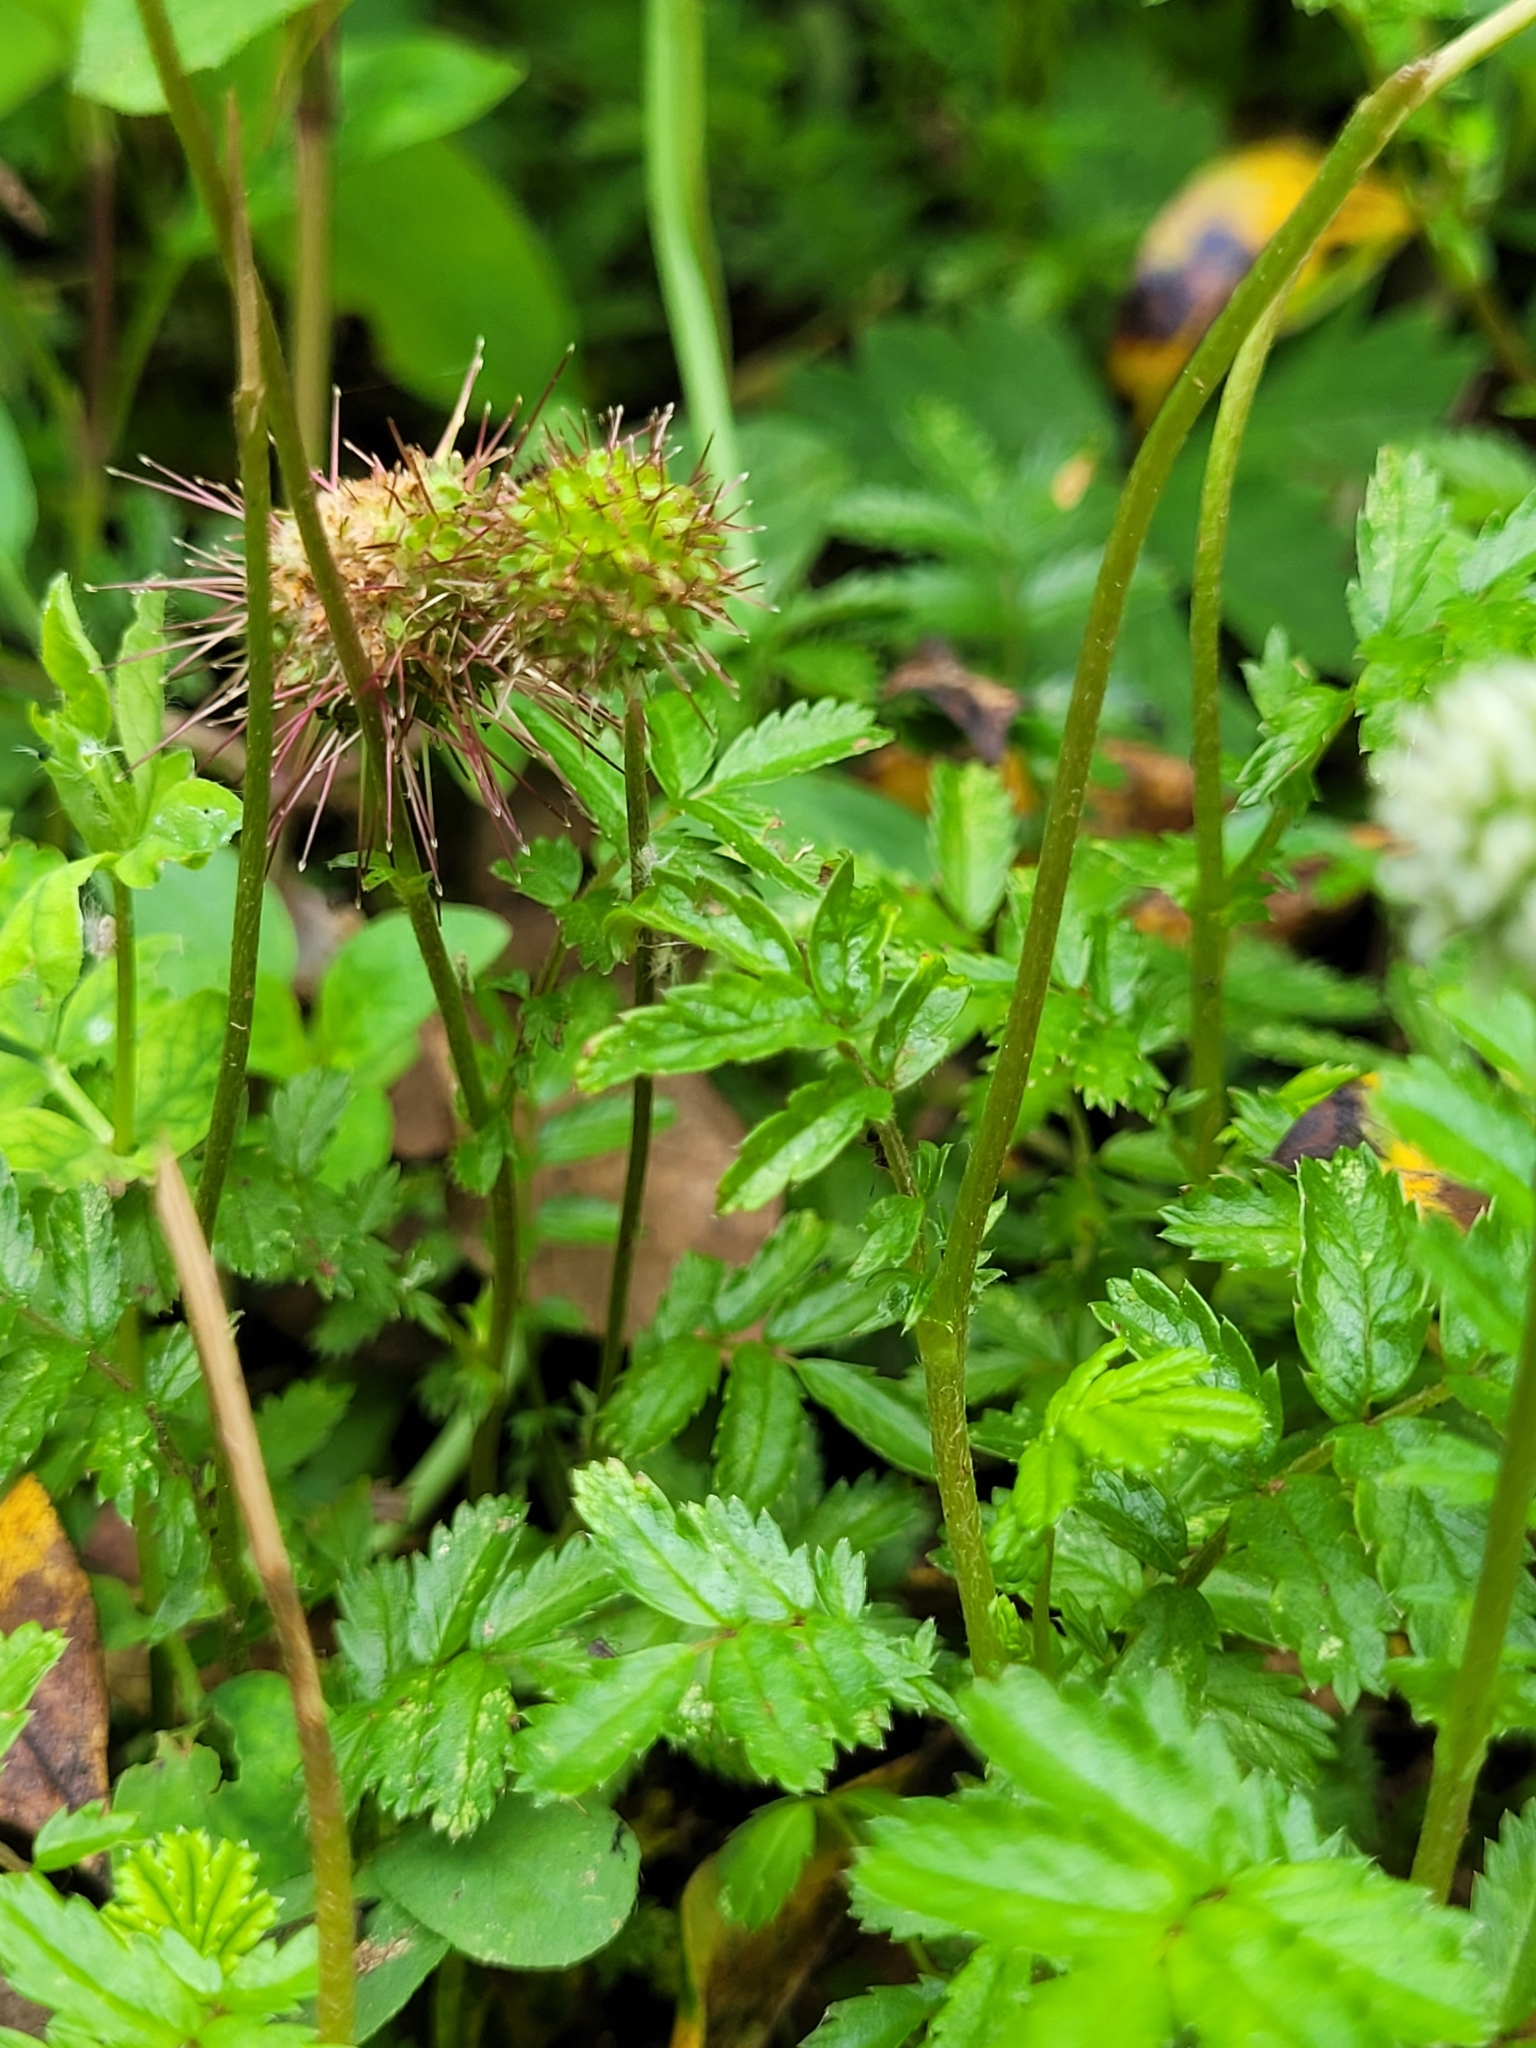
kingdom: Plantae
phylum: Tracheophyta
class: Magnoliopsida
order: Rosales
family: Rosaceae
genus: Acaena
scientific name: Acaena novae-zelandiae
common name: Pirri-pirri-bur
